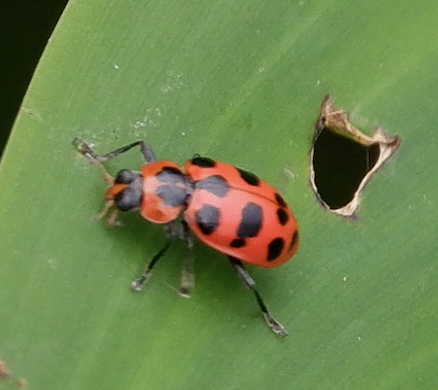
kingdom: Animalia
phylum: Arthropoda
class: Insecta
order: Coleoptera
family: Coccinellidae
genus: Coleomegilla
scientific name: Coleomegilla maculata
